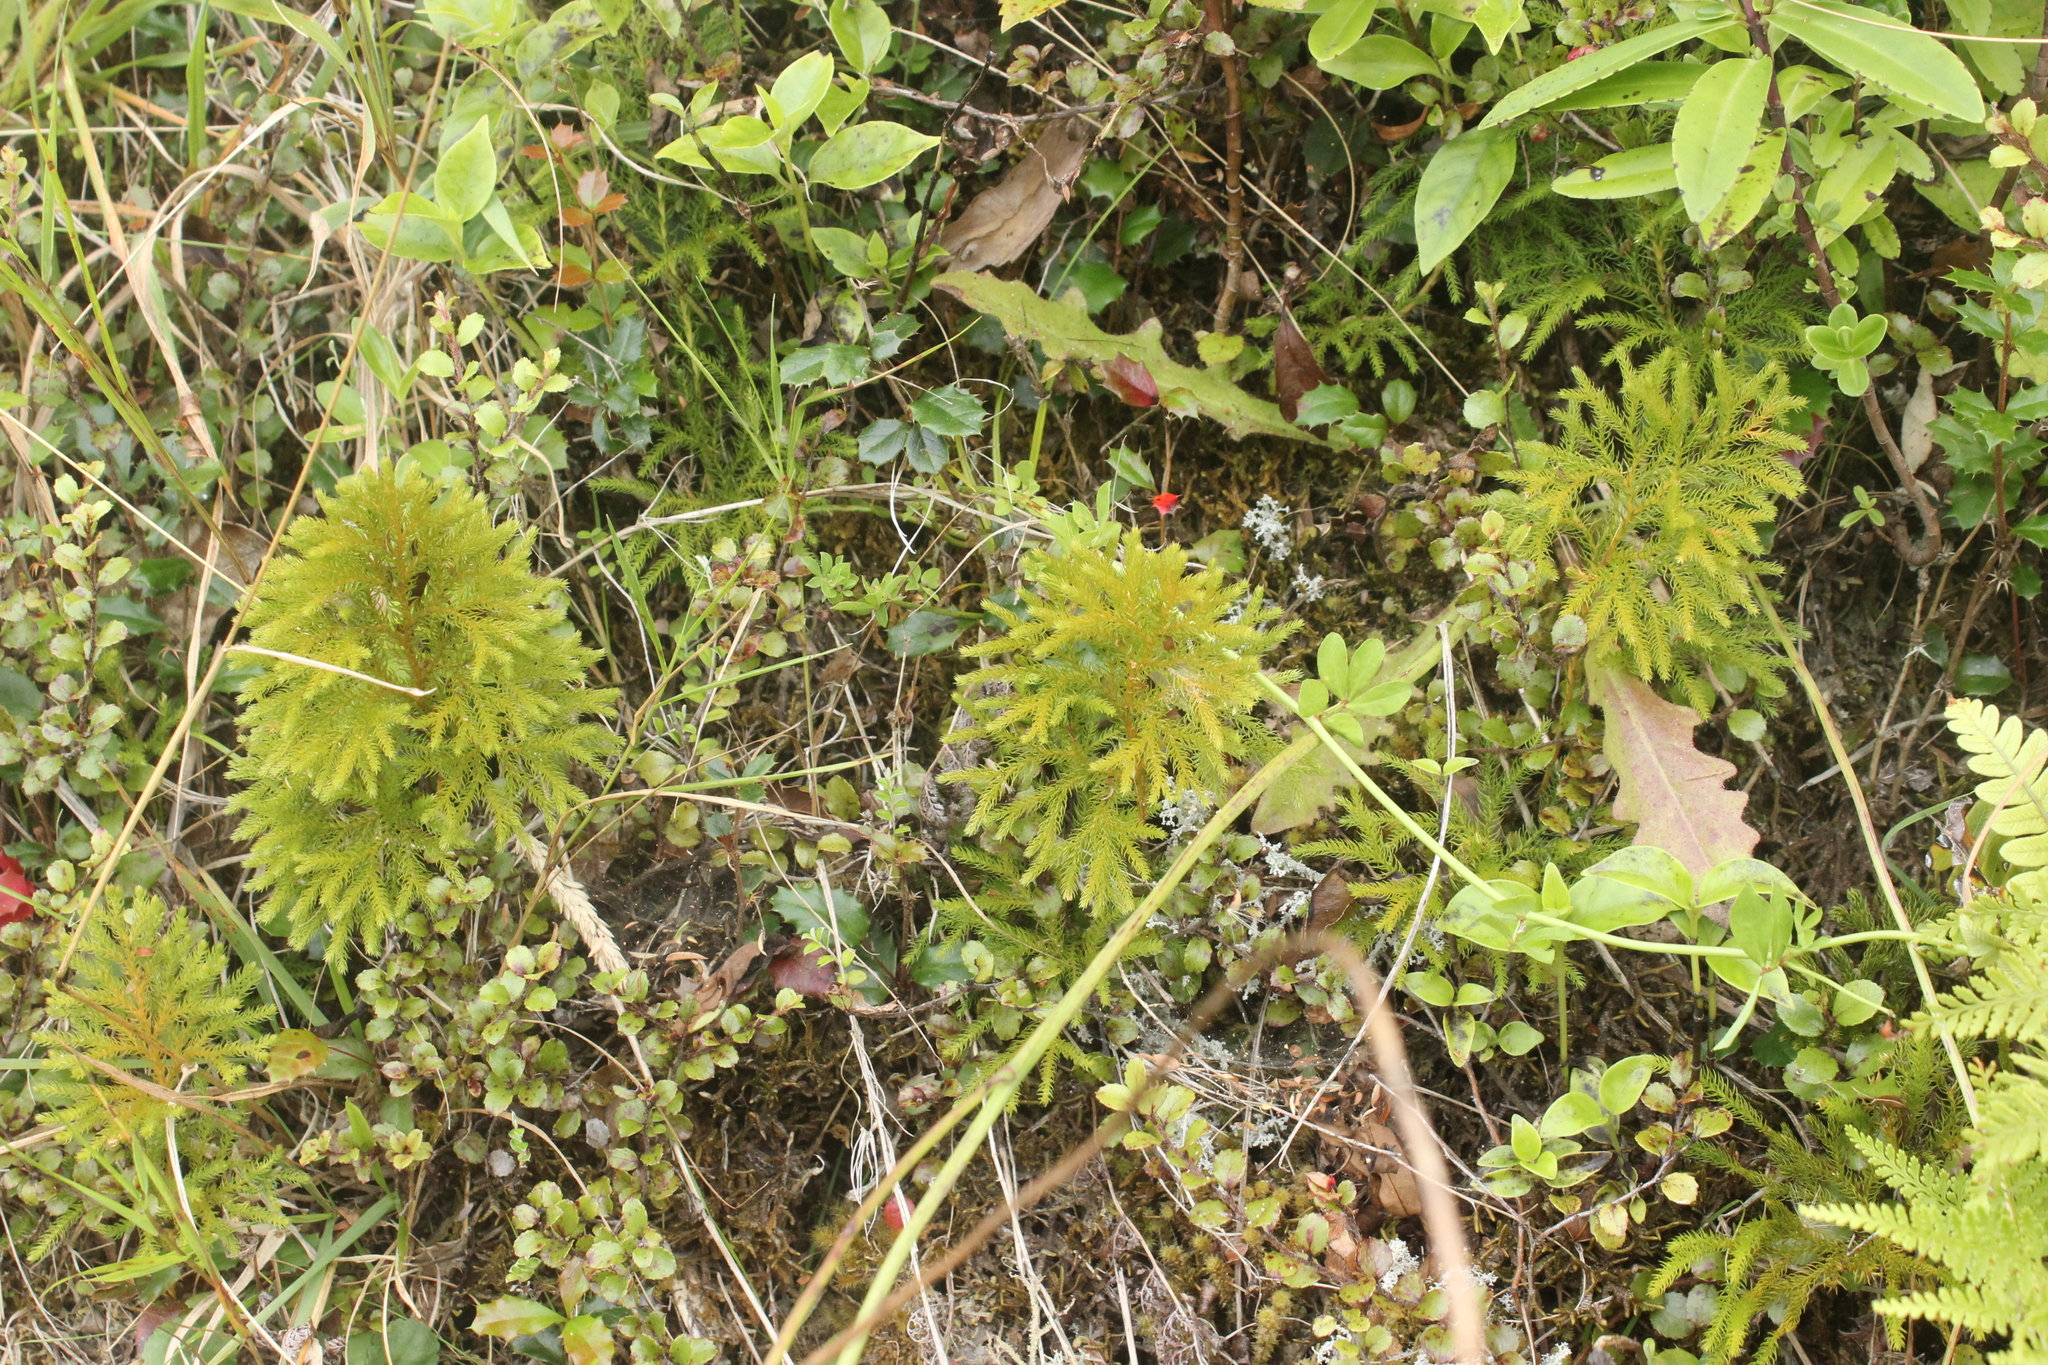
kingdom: Plantae
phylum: Tracheophyta
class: Lycopodiopsida
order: Lycopodiales
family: Lycopodiaceae
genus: Austrolycopodium
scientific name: Austrolycopodium fastigiatum
